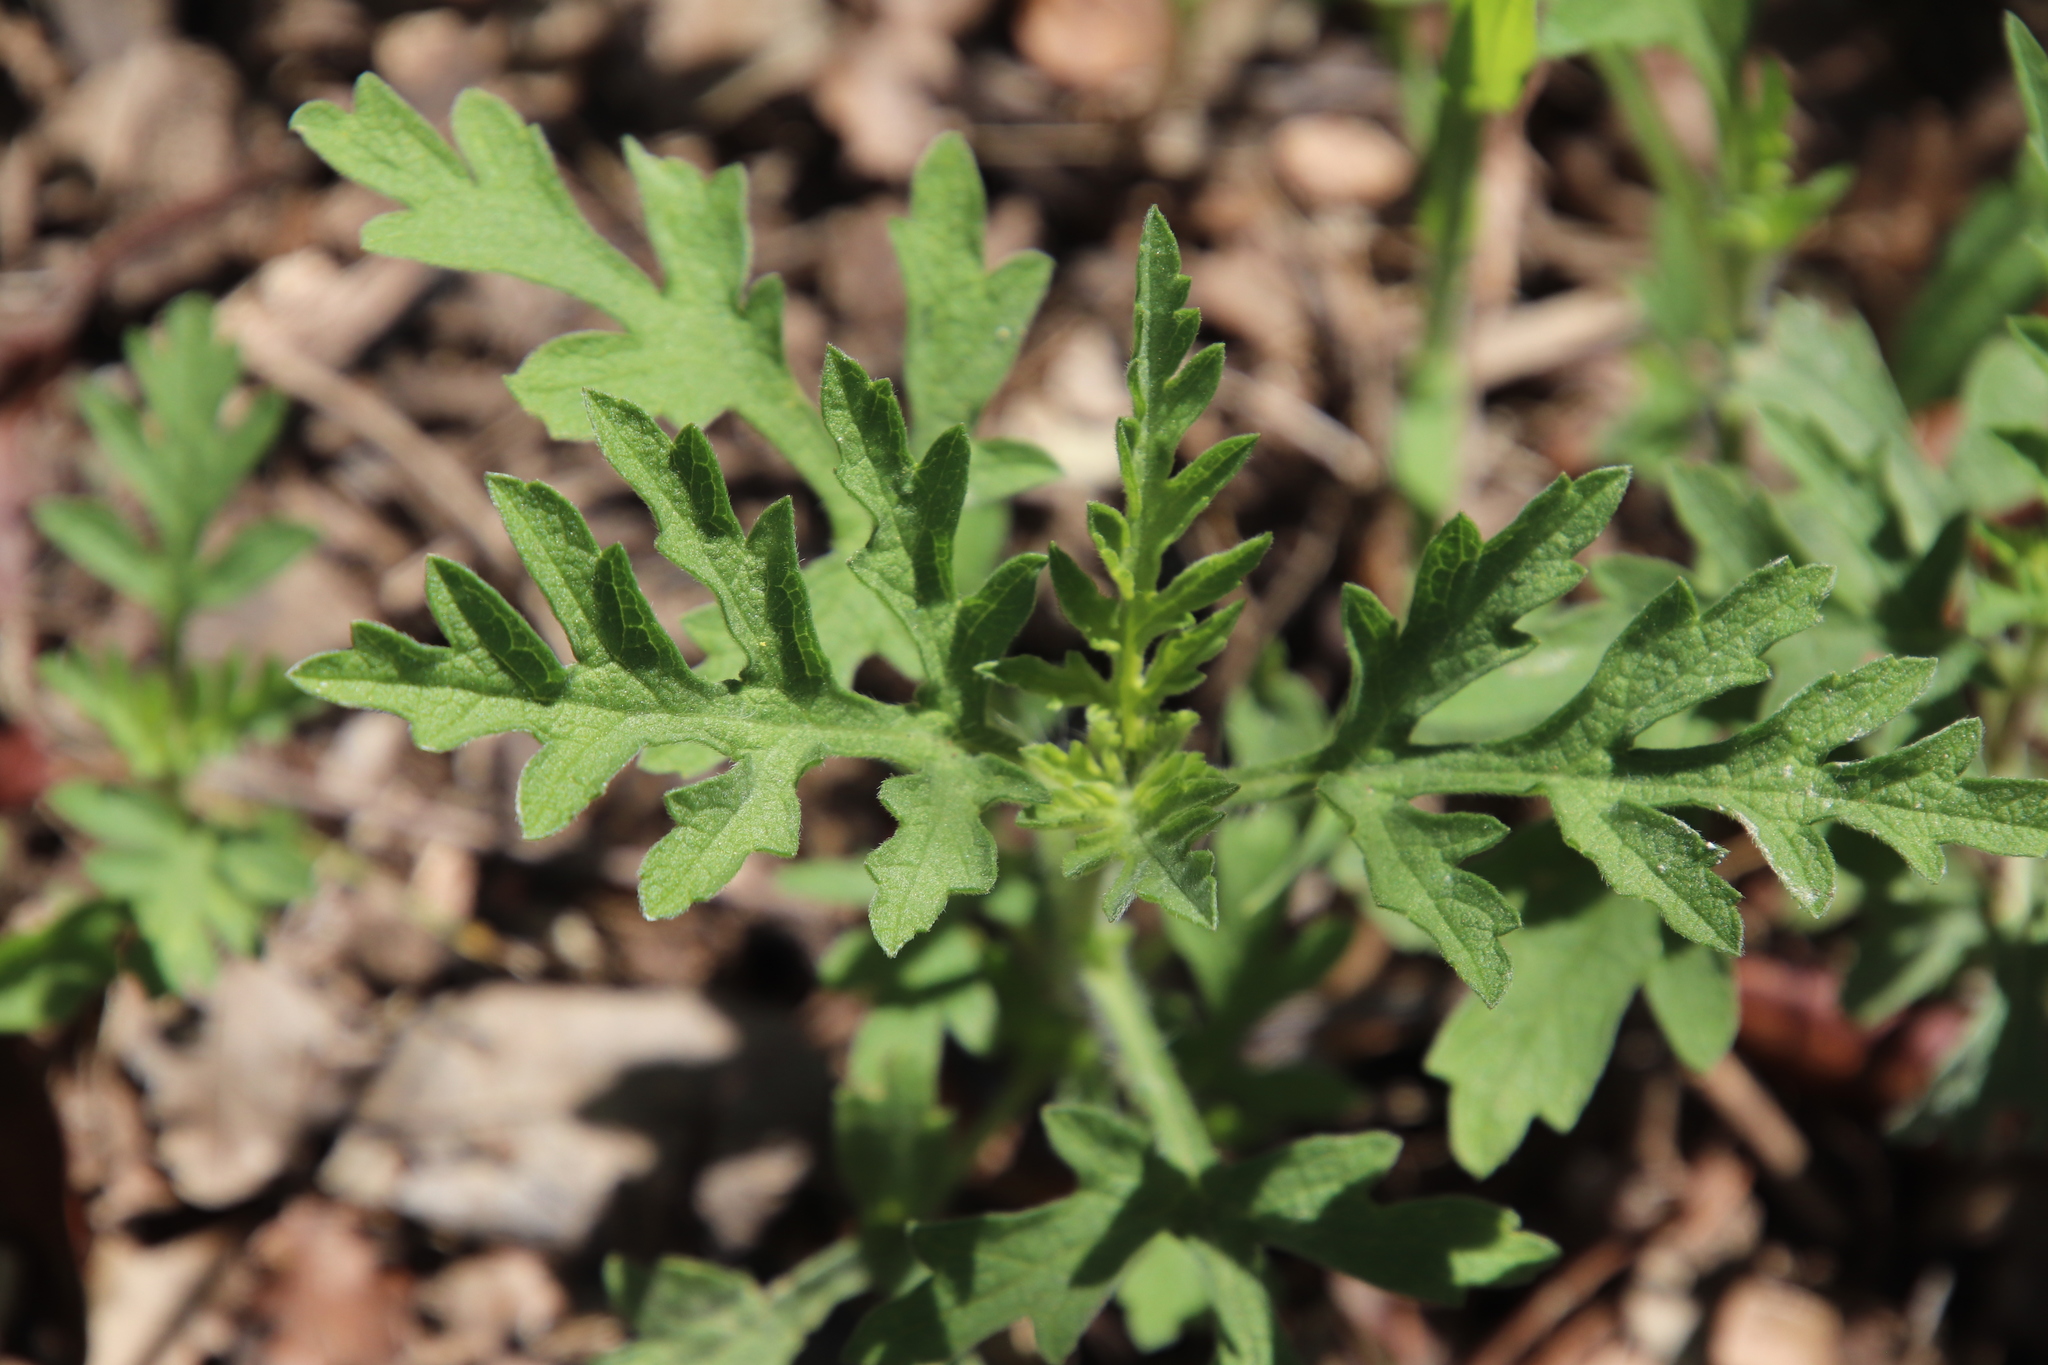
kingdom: Plantae
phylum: Tracheophyta
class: Magnoliopsida
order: Asterales
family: Asteraceae
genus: Ambrosia
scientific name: Ambrosia psilostachya
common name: Perennial ragweed
